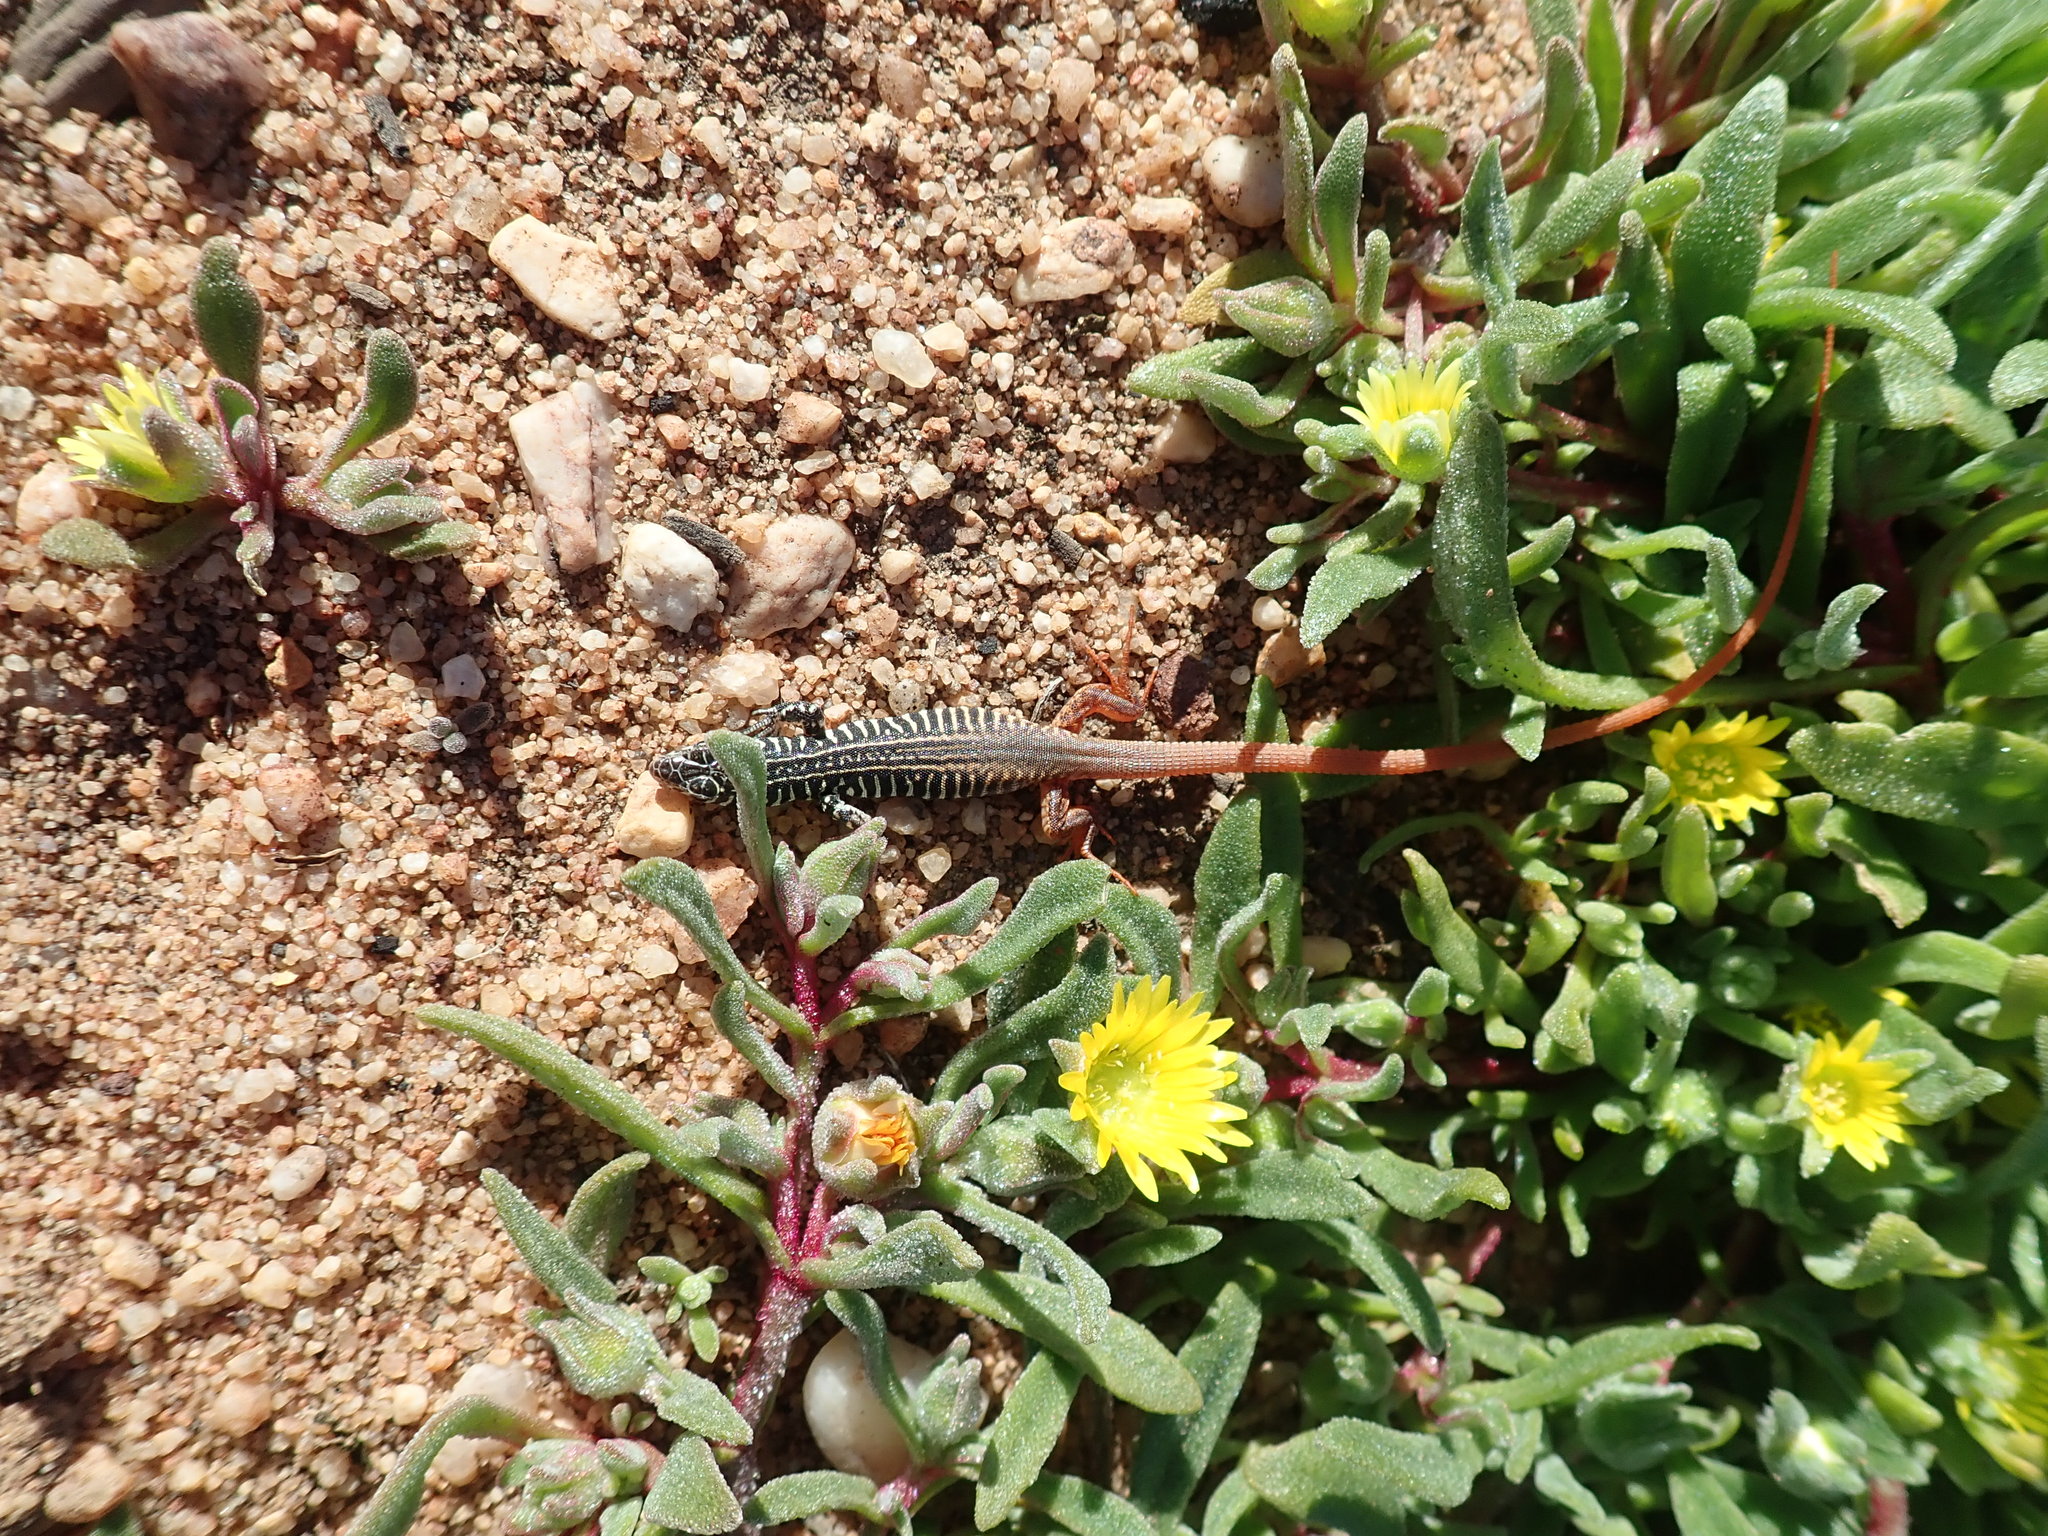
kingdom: Animalia
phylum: Chordata
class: Squamata
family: Lacertidae
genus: Nucras
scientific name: Nucras tessellata
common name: Western sandveld lizard
